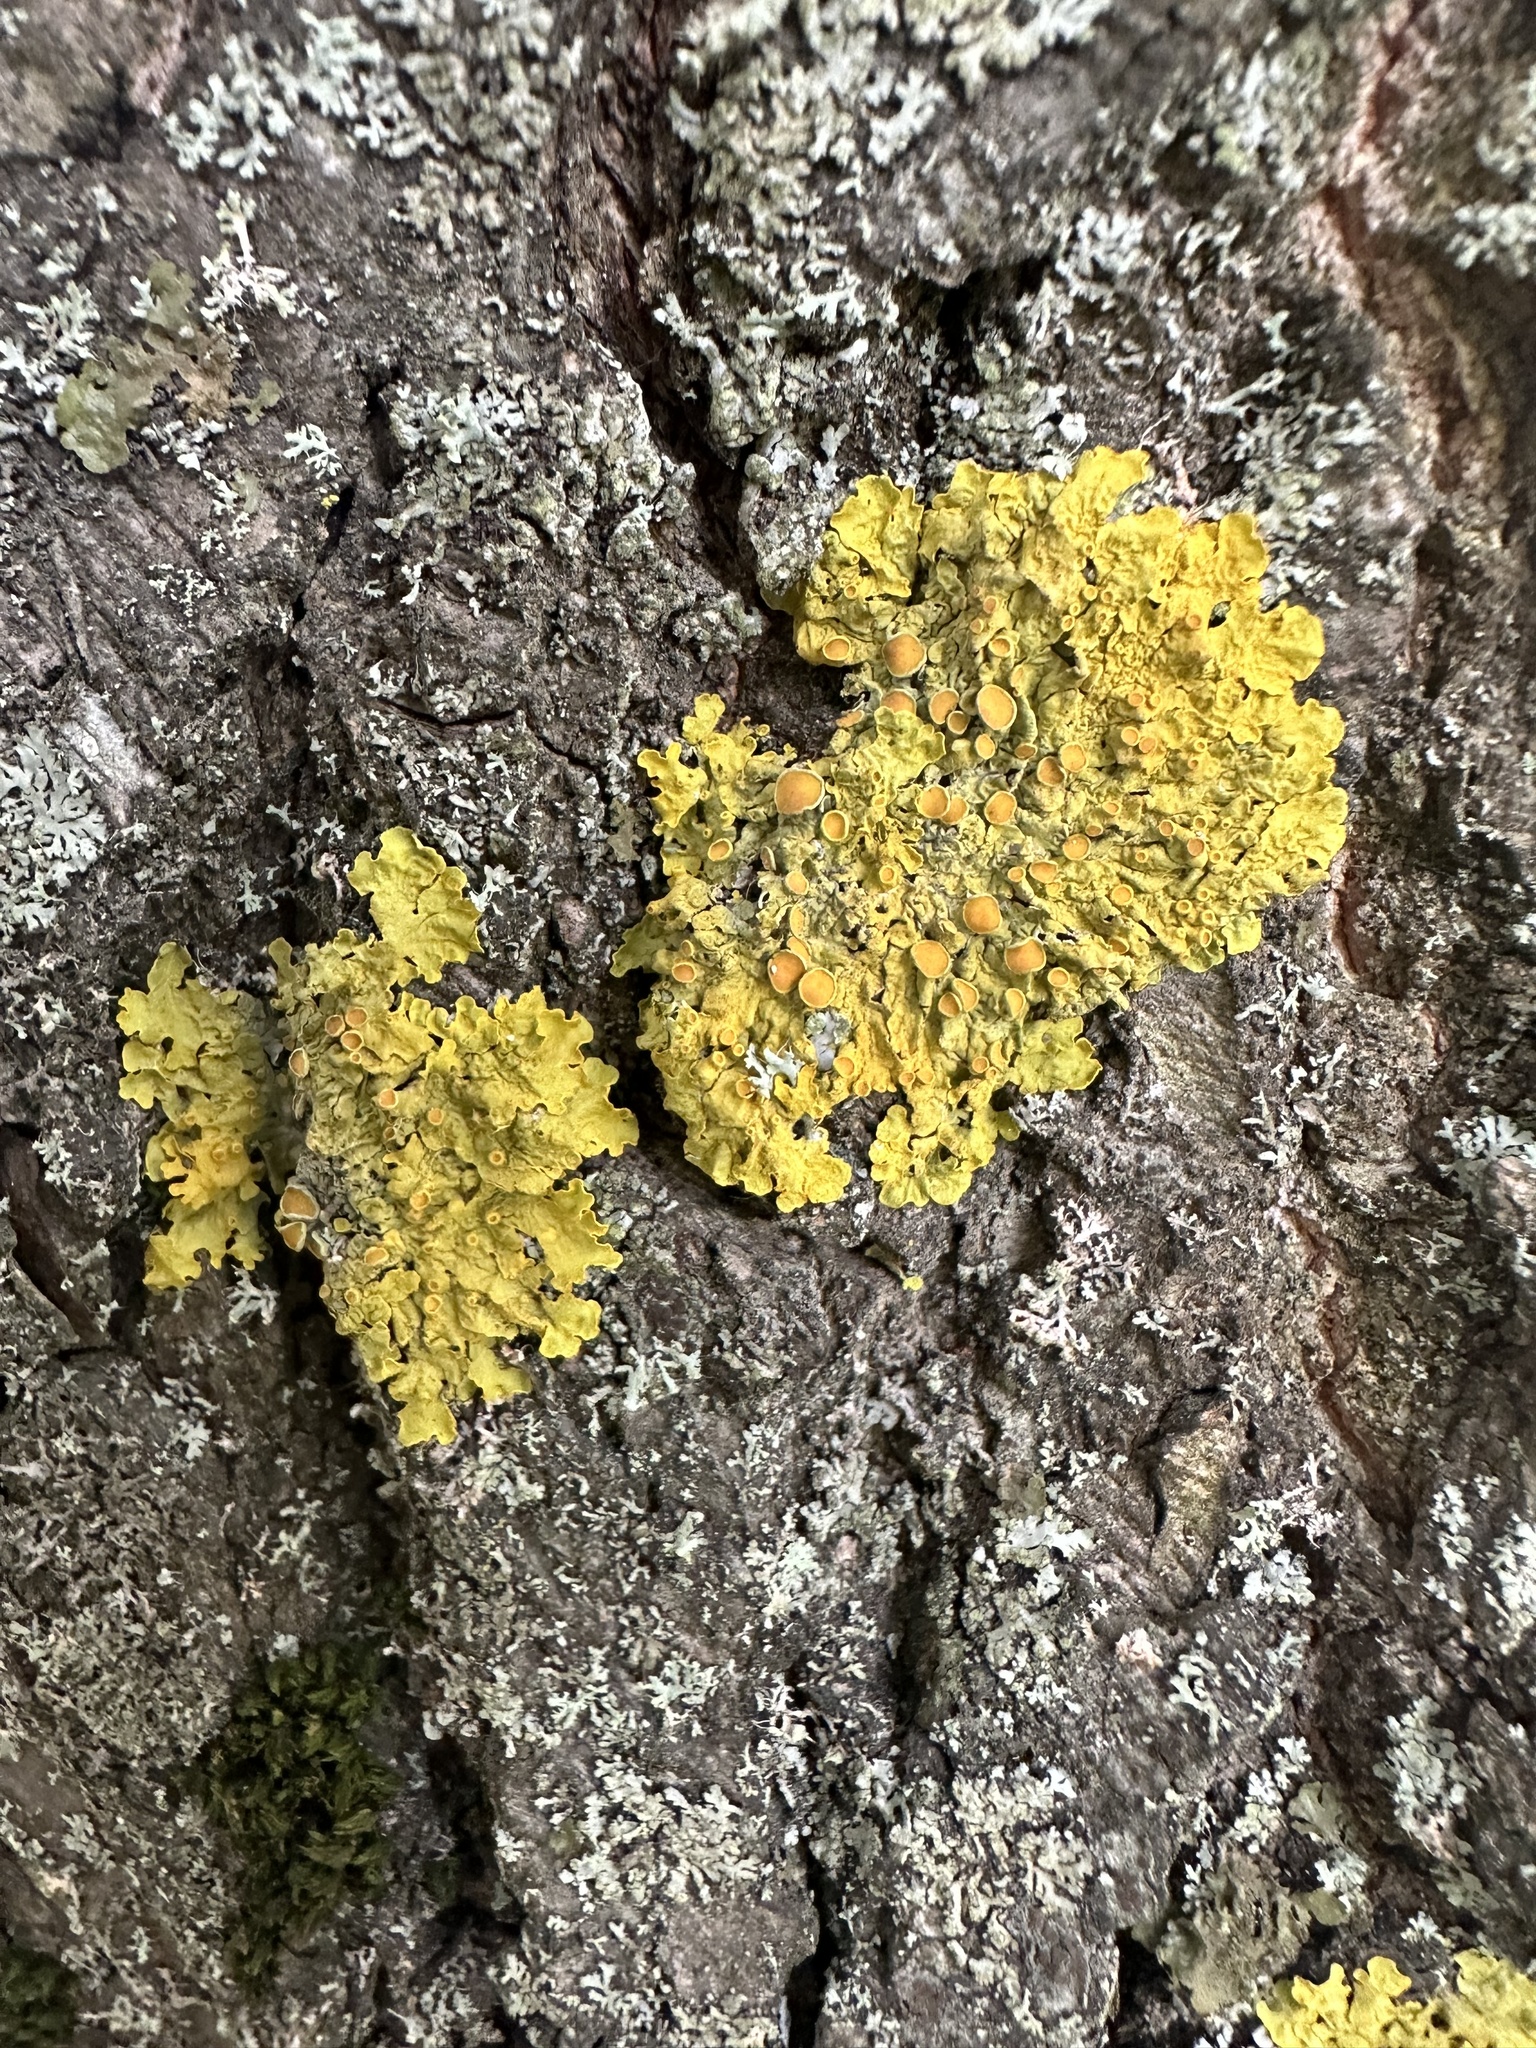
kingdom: Fungi
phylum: Ascomycota
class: Lecanoromycetes
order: Teloschistales
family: Teloschistaceae
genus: Xanthoria
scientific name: Xanthoria parietina
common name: Common orange lichen
